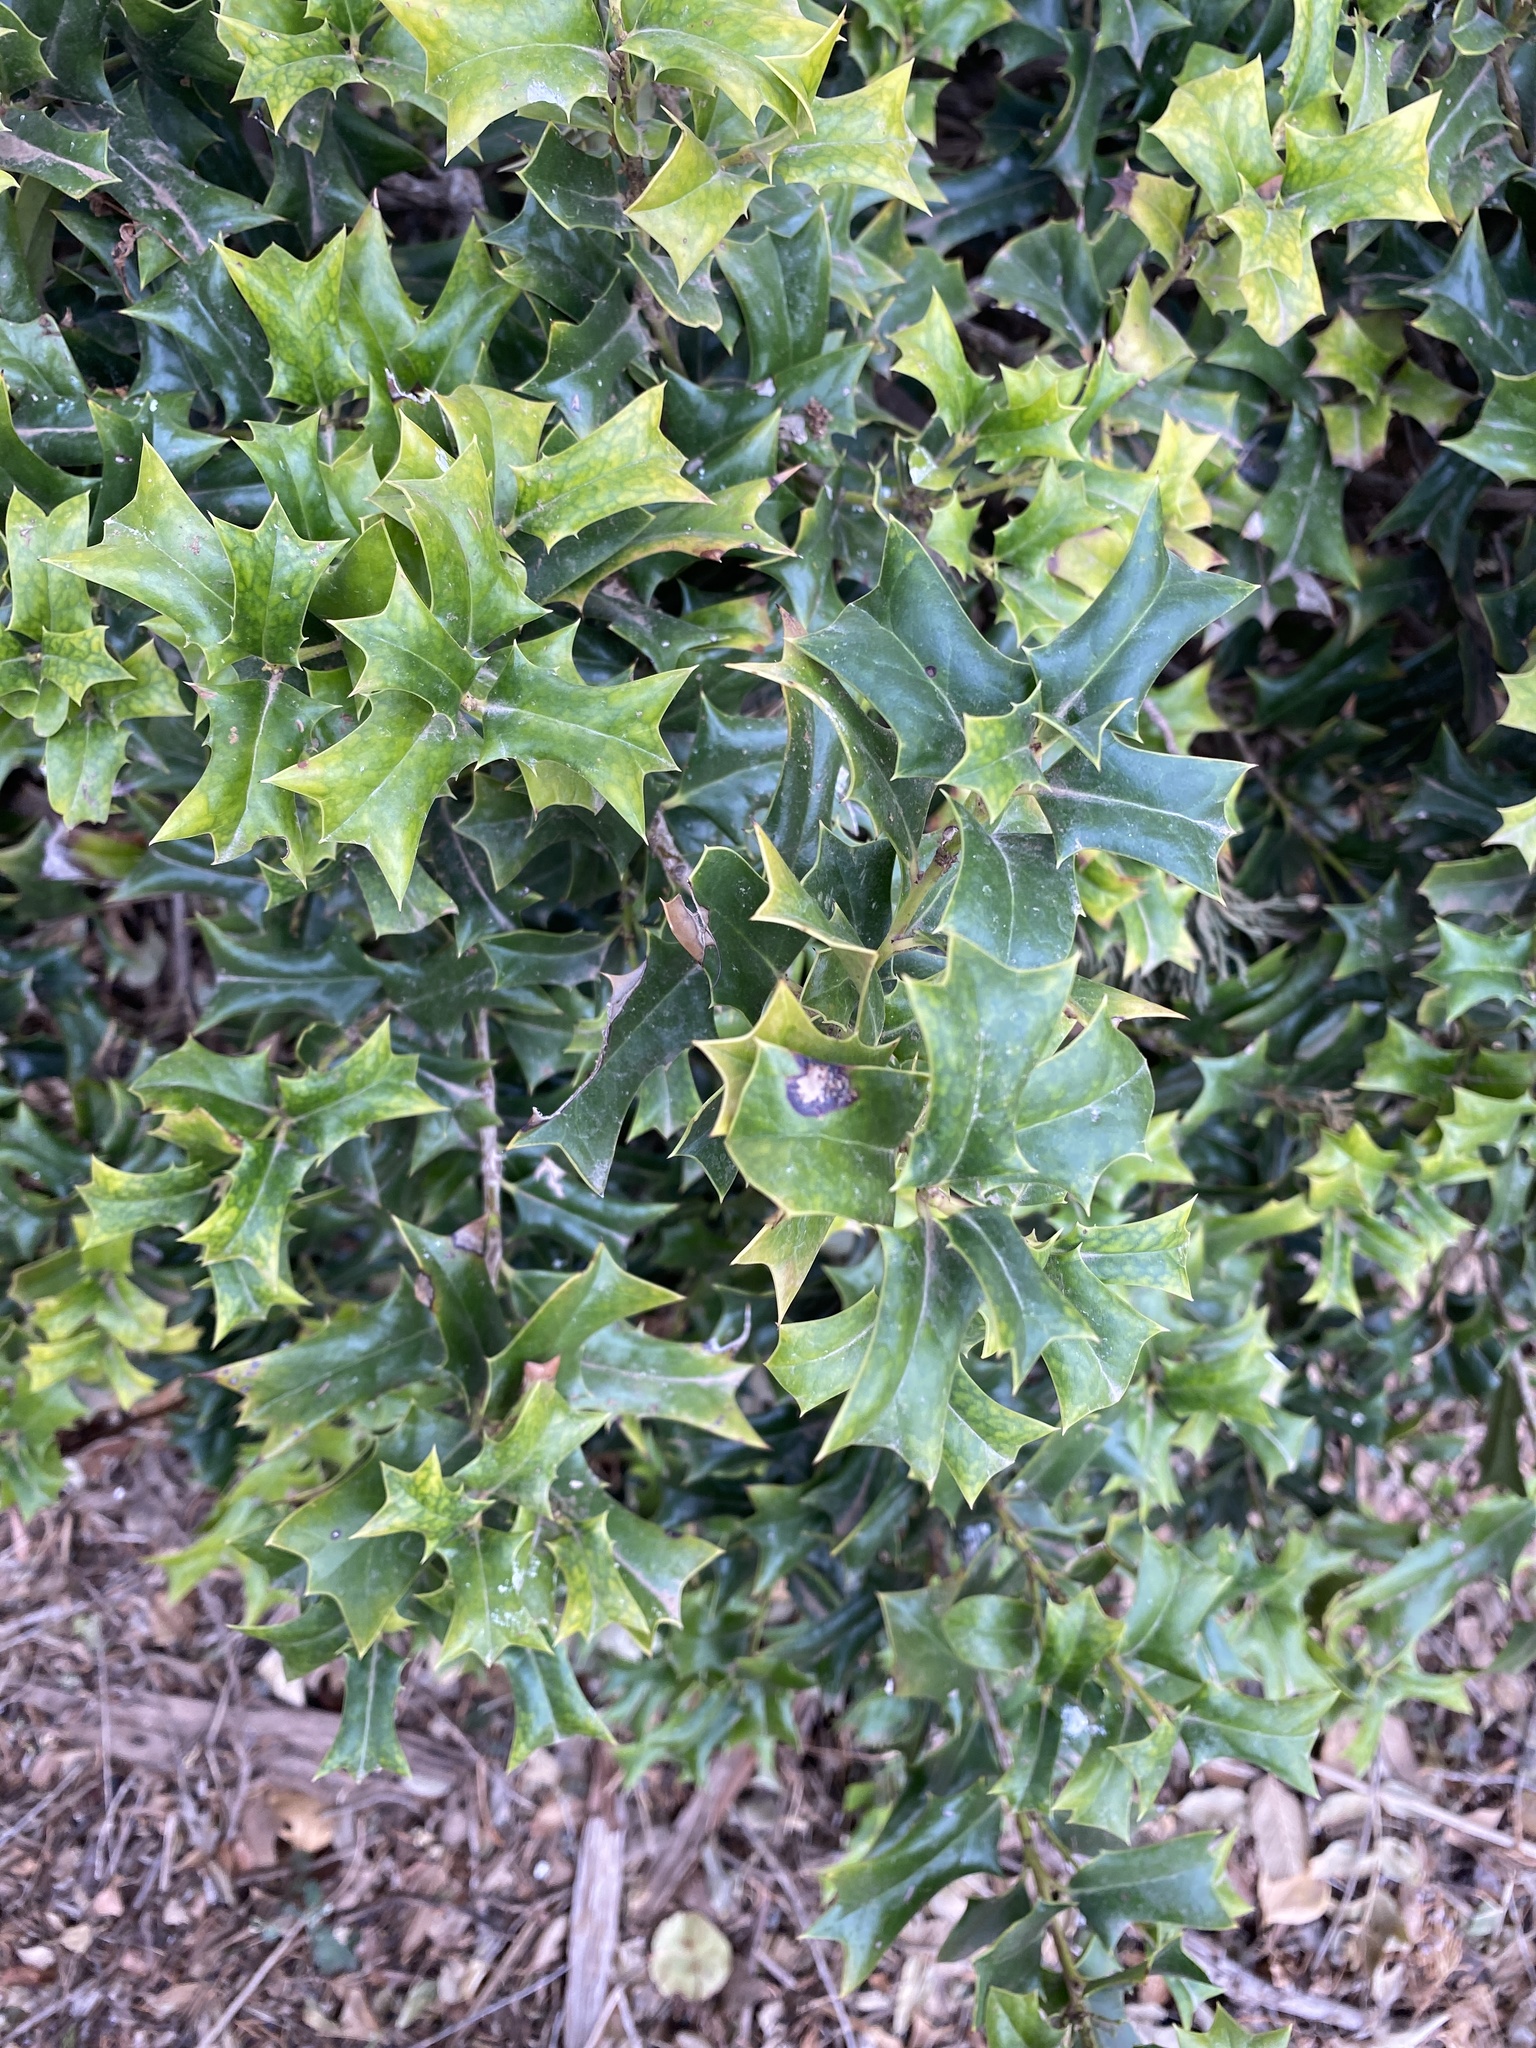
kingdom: Plantae
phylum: Tracheophyta
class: Magnoliopsida
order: Aquifoliales
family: Aquifoliaceae
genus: Ilex
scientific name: Ilex cornuta
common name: Chinese holly
